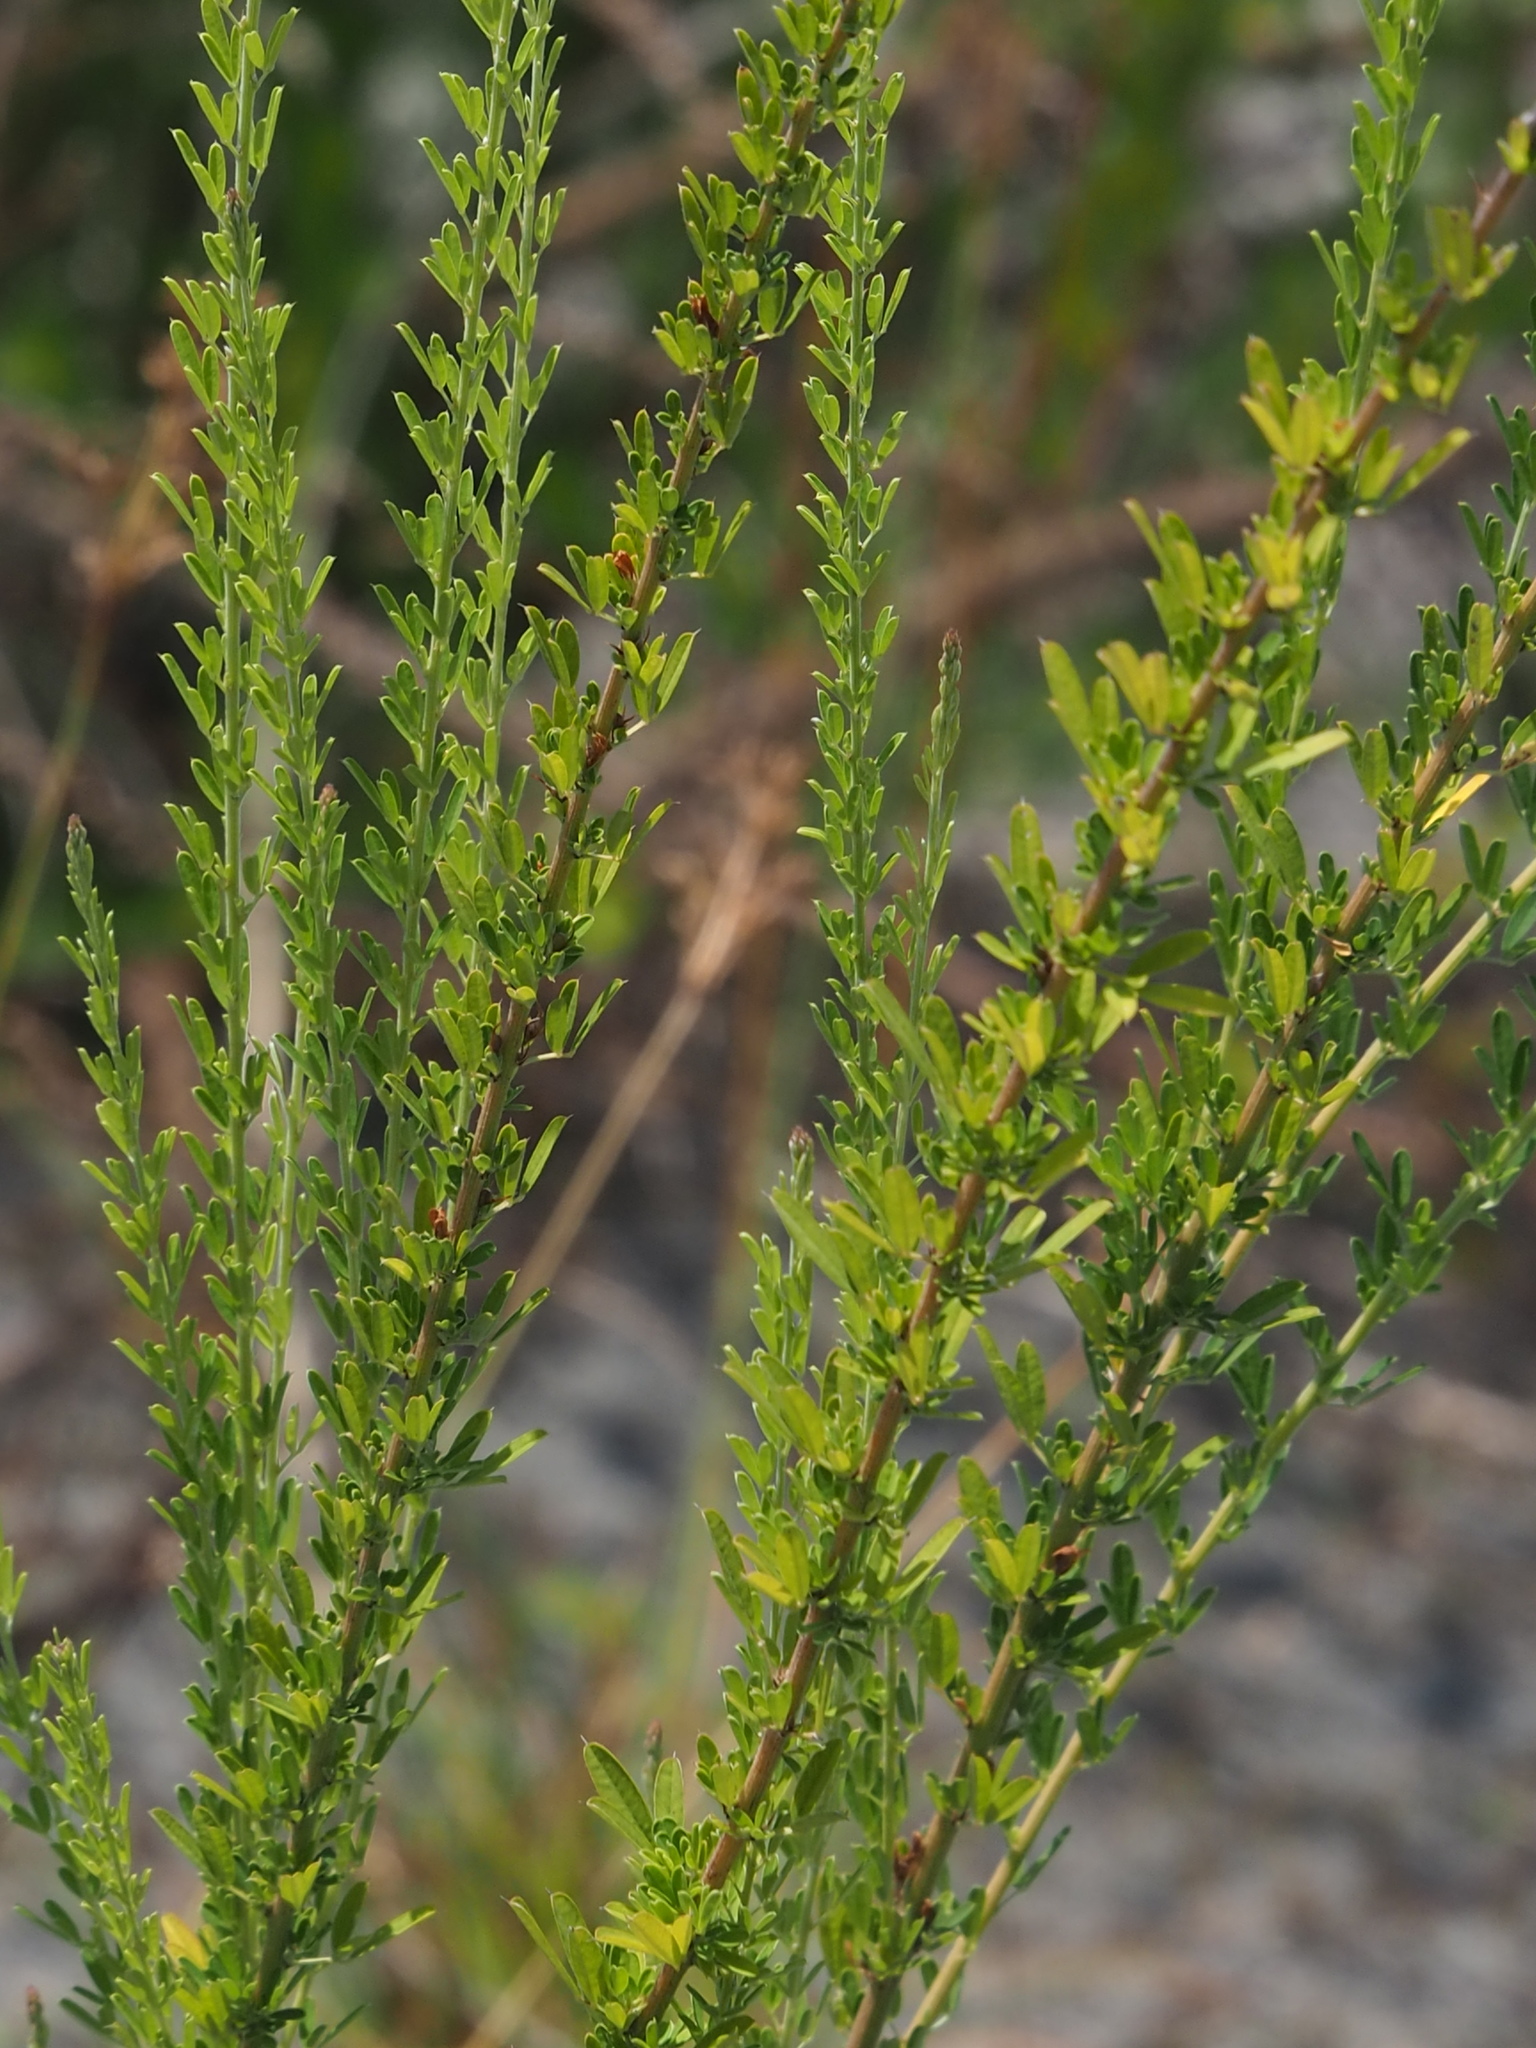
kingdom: Plantae
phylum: Tracheophyta
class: Magnoliopsida
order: Fabales
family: Fabaceae
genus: Lespedeza
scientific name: Lespedeza cuneata
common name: Chinese bush-clover
